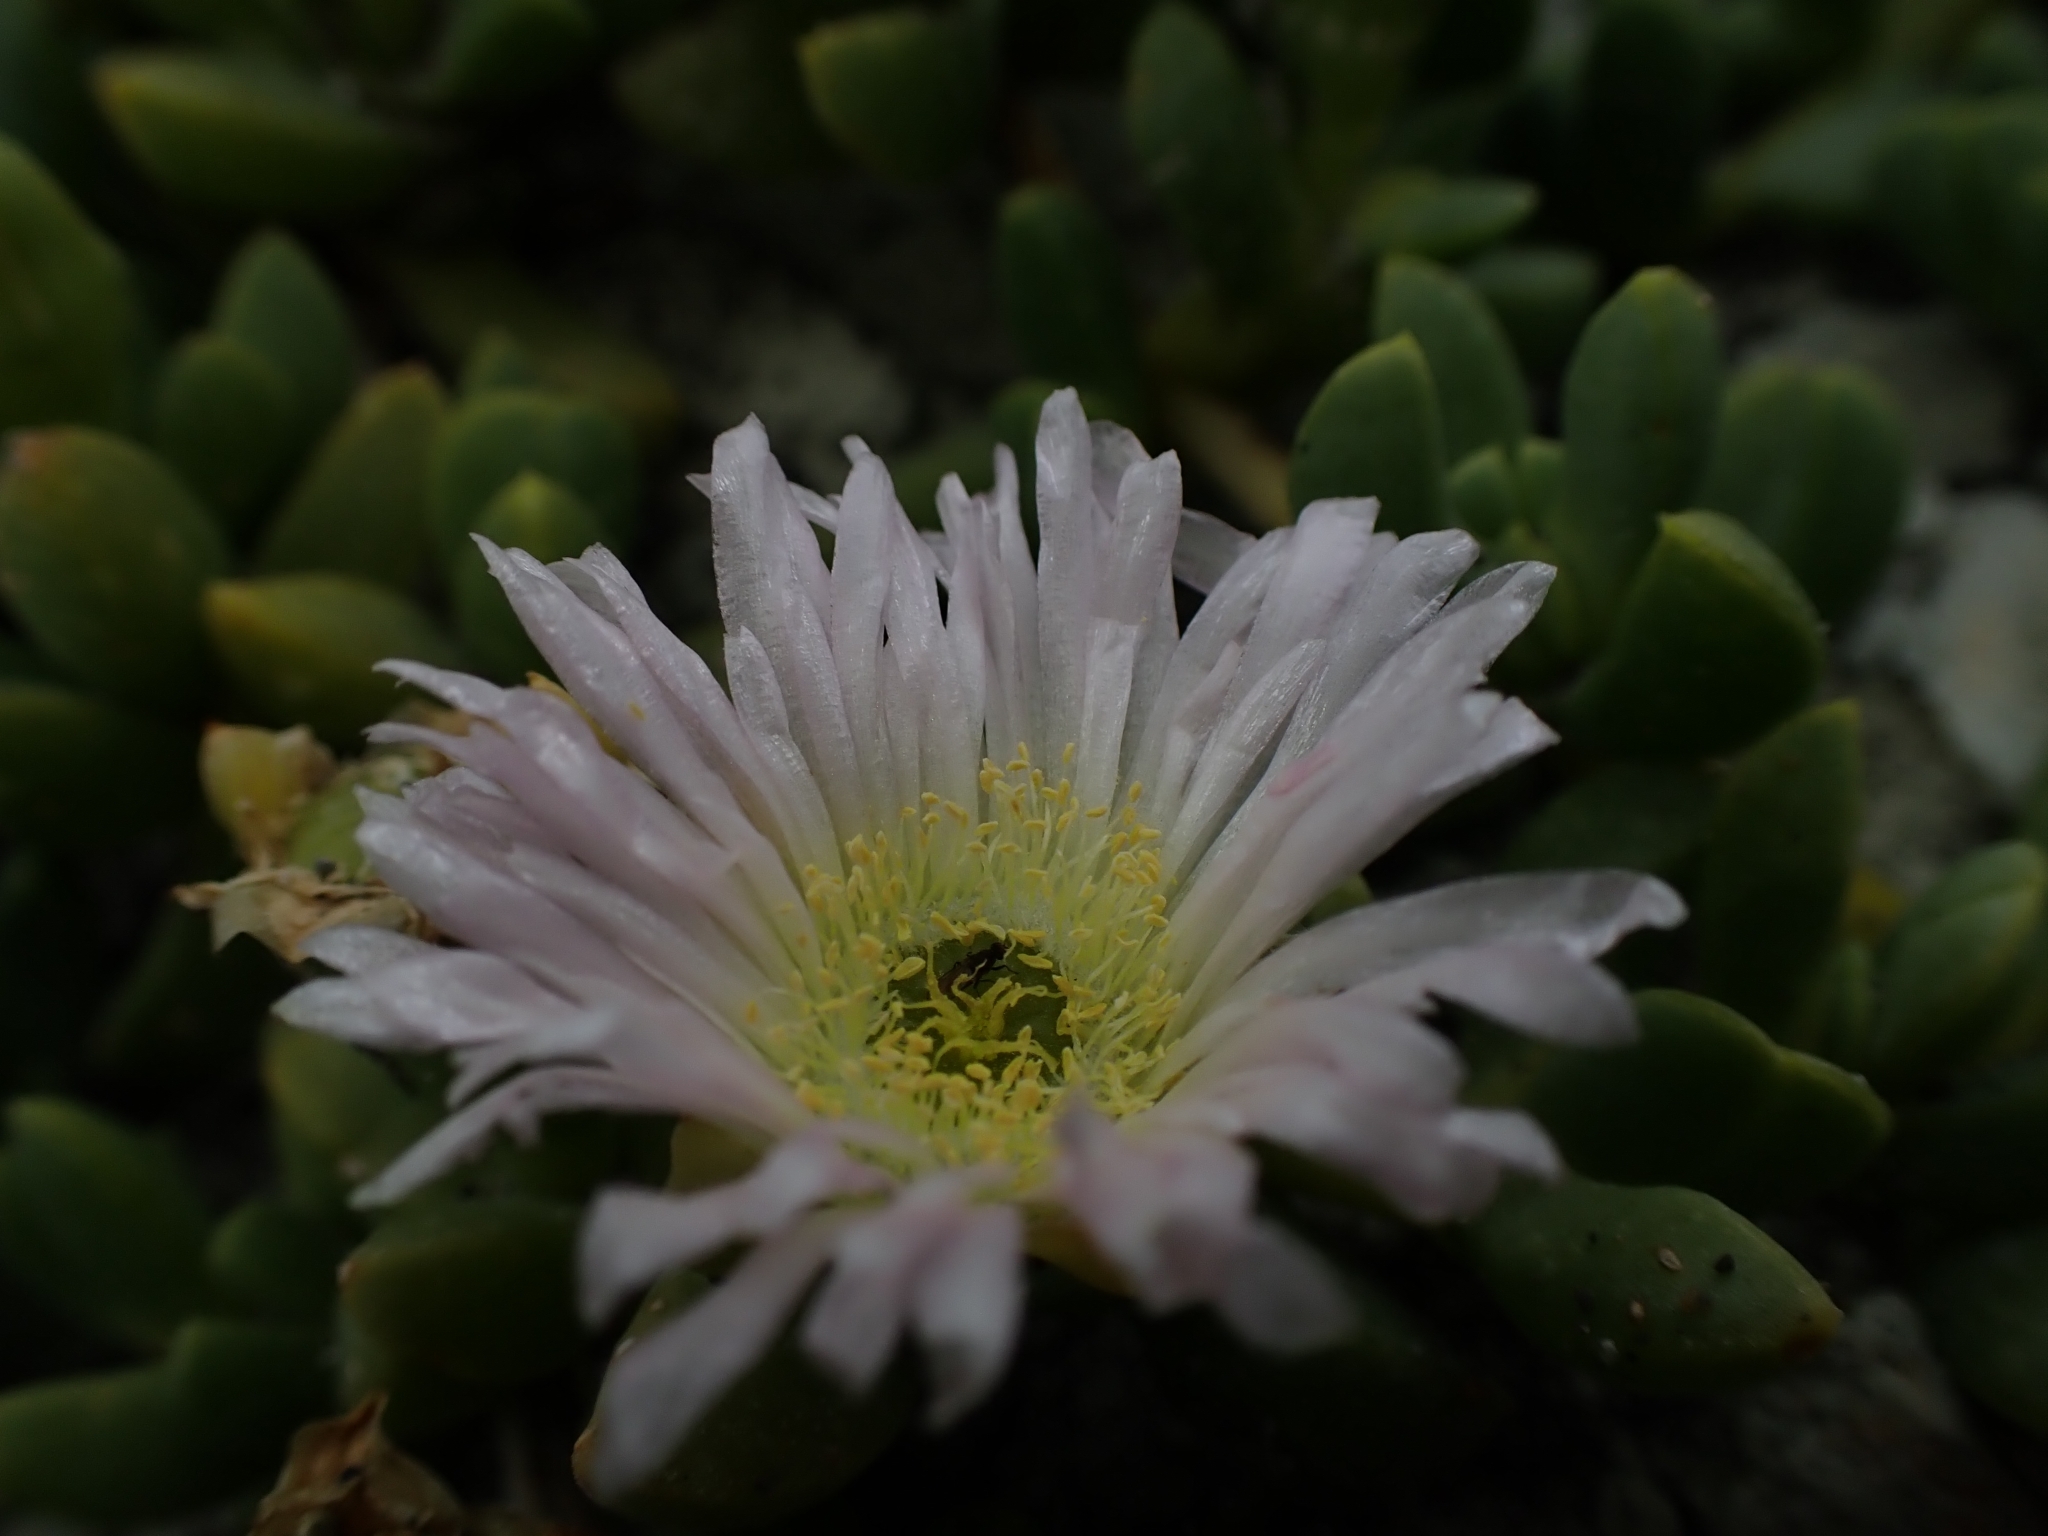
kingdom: Plantae
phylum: Tracheophyta
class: Magnoliopsida
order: Caryophyllales
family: Aizoaceae
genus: Disphyma
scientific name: Disphyma australe
